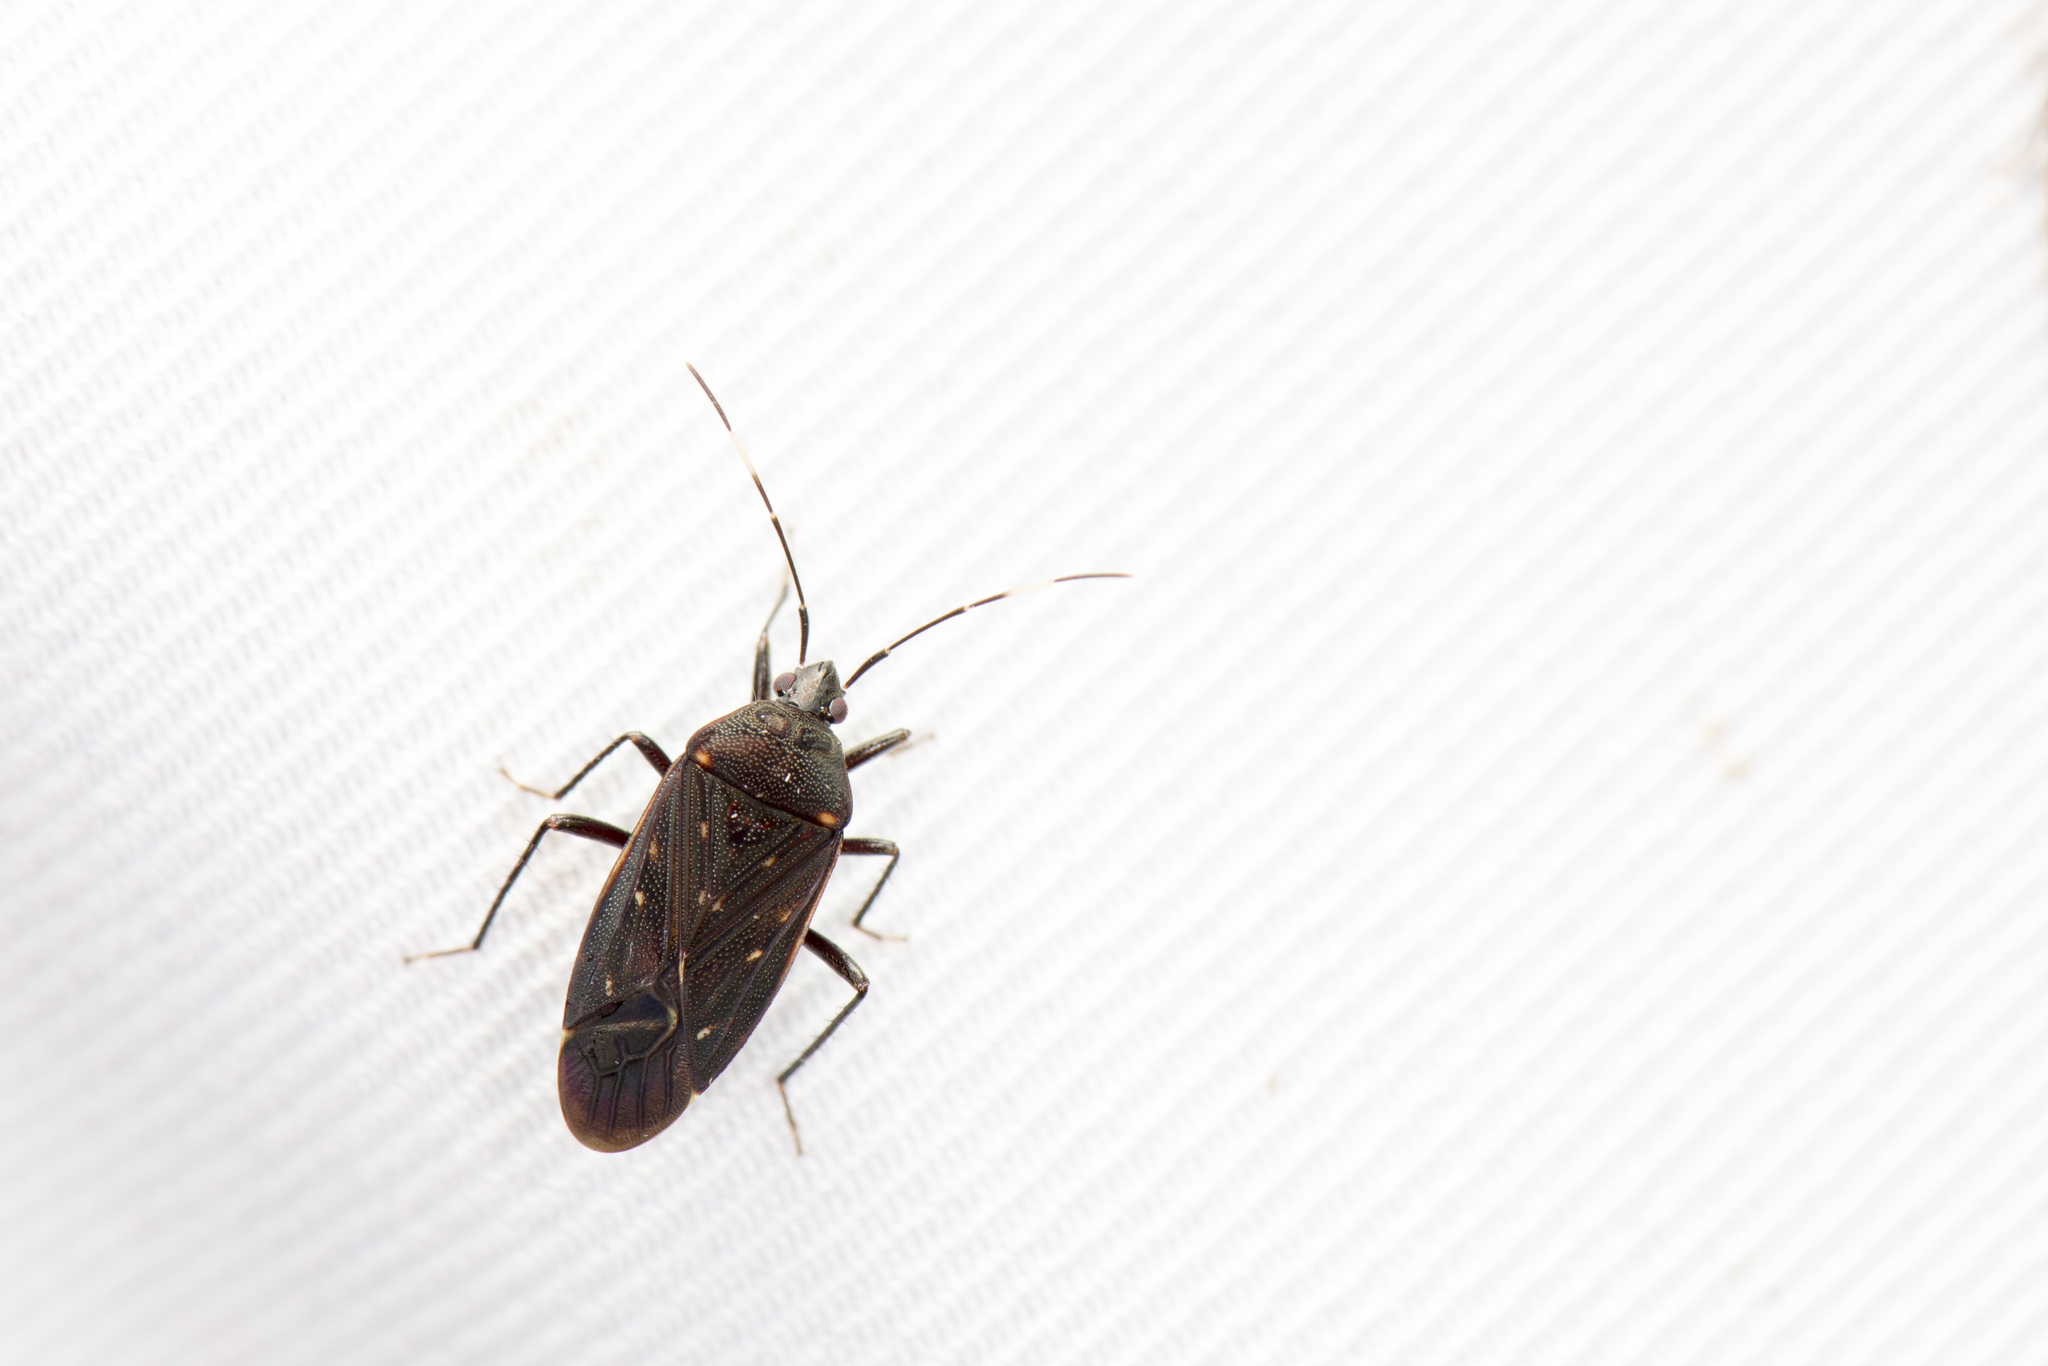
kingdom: Animalia
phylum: Arthropoda
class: Insecta
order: Hemiptera
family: Rhyparochromidae
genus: Neolethaeus
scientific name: Neolethaeus assamensis
